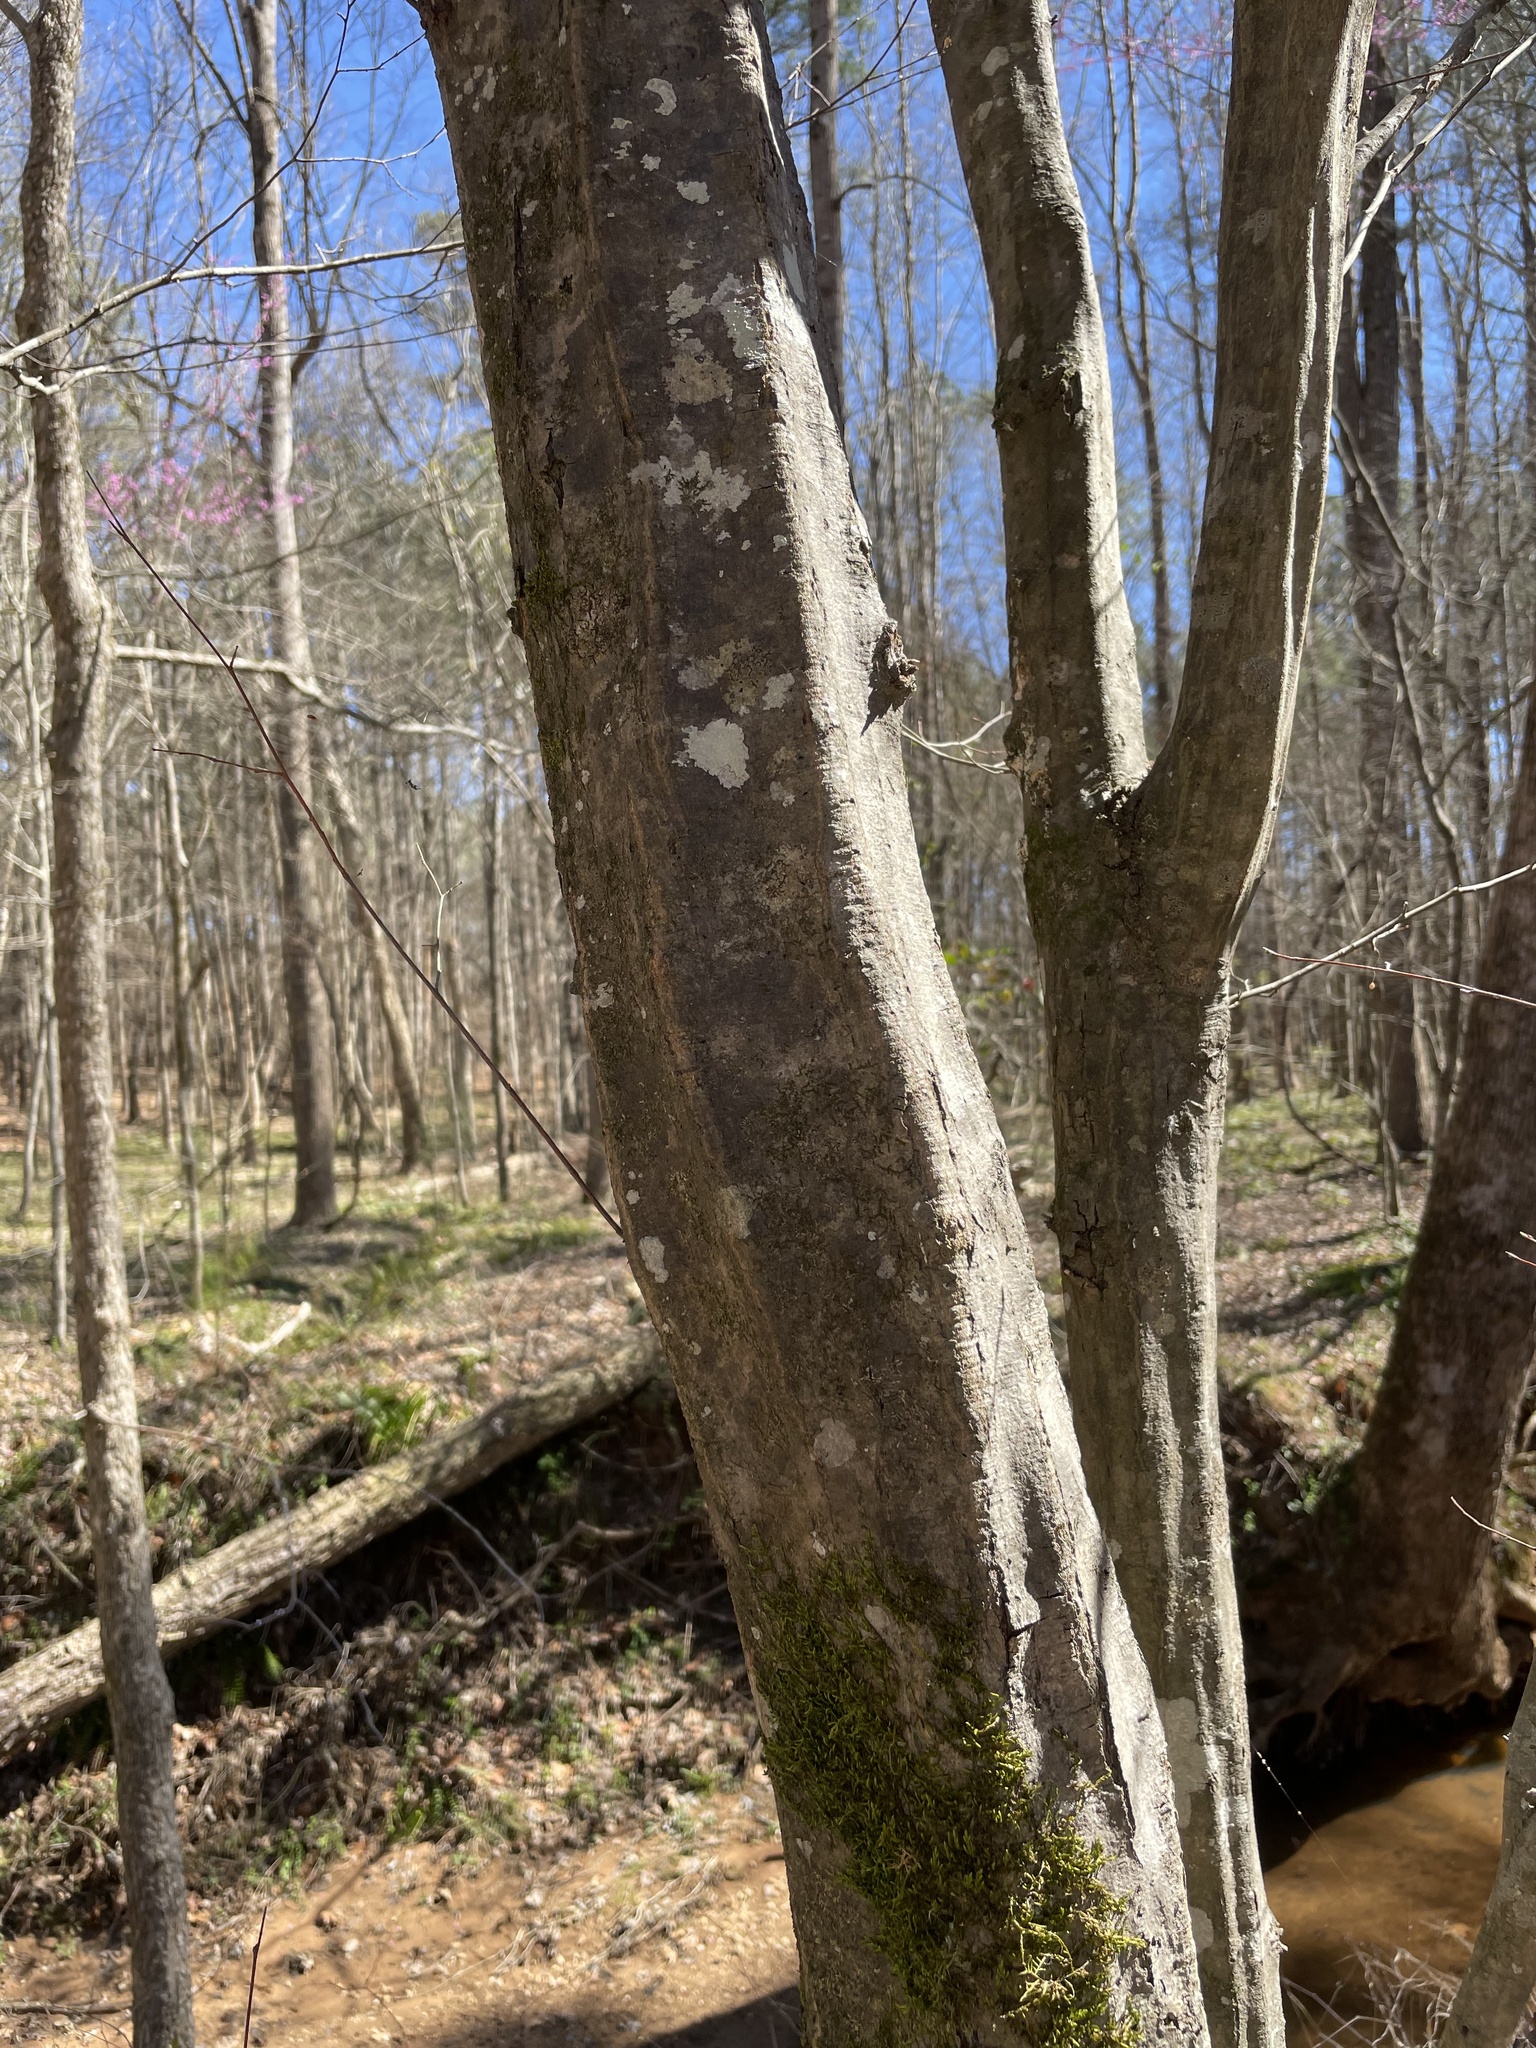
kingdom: Plantae
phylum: Tracheophyta
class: Magnoliopsida
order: Fagales
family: Betulaceae
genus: Carpinus
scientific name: Carpinus caroliniana
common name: American hornbeam
